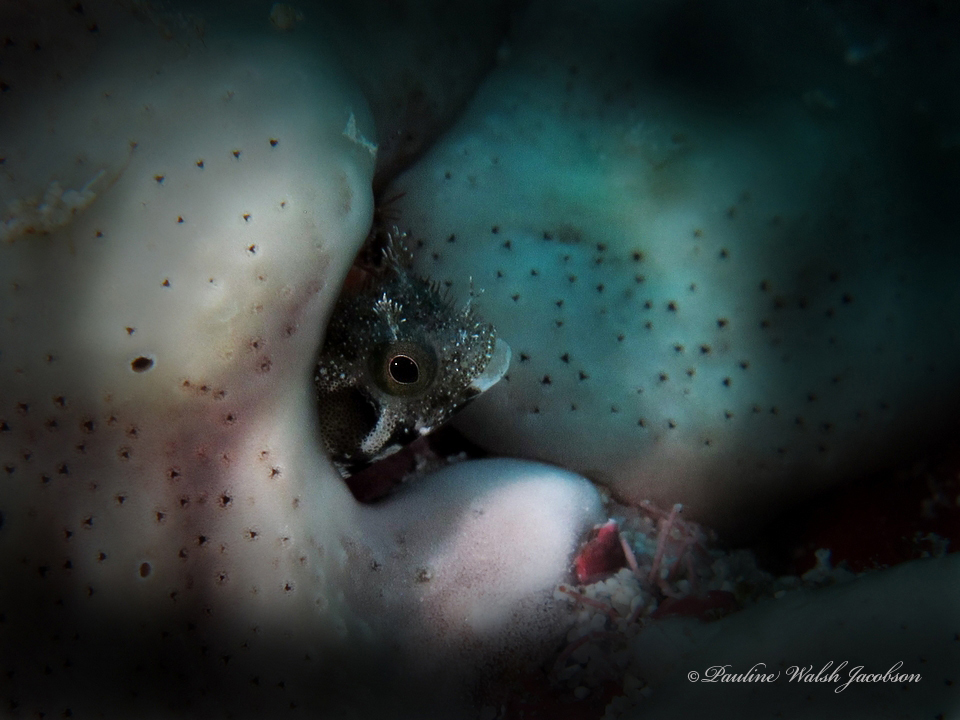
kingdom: Animalia
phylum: Chordata
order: Perciformes
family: Chaenopsidae
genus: Acanthemblemaria
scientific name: Acanthemblemaria spinosa
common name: Spinyhead blenny
